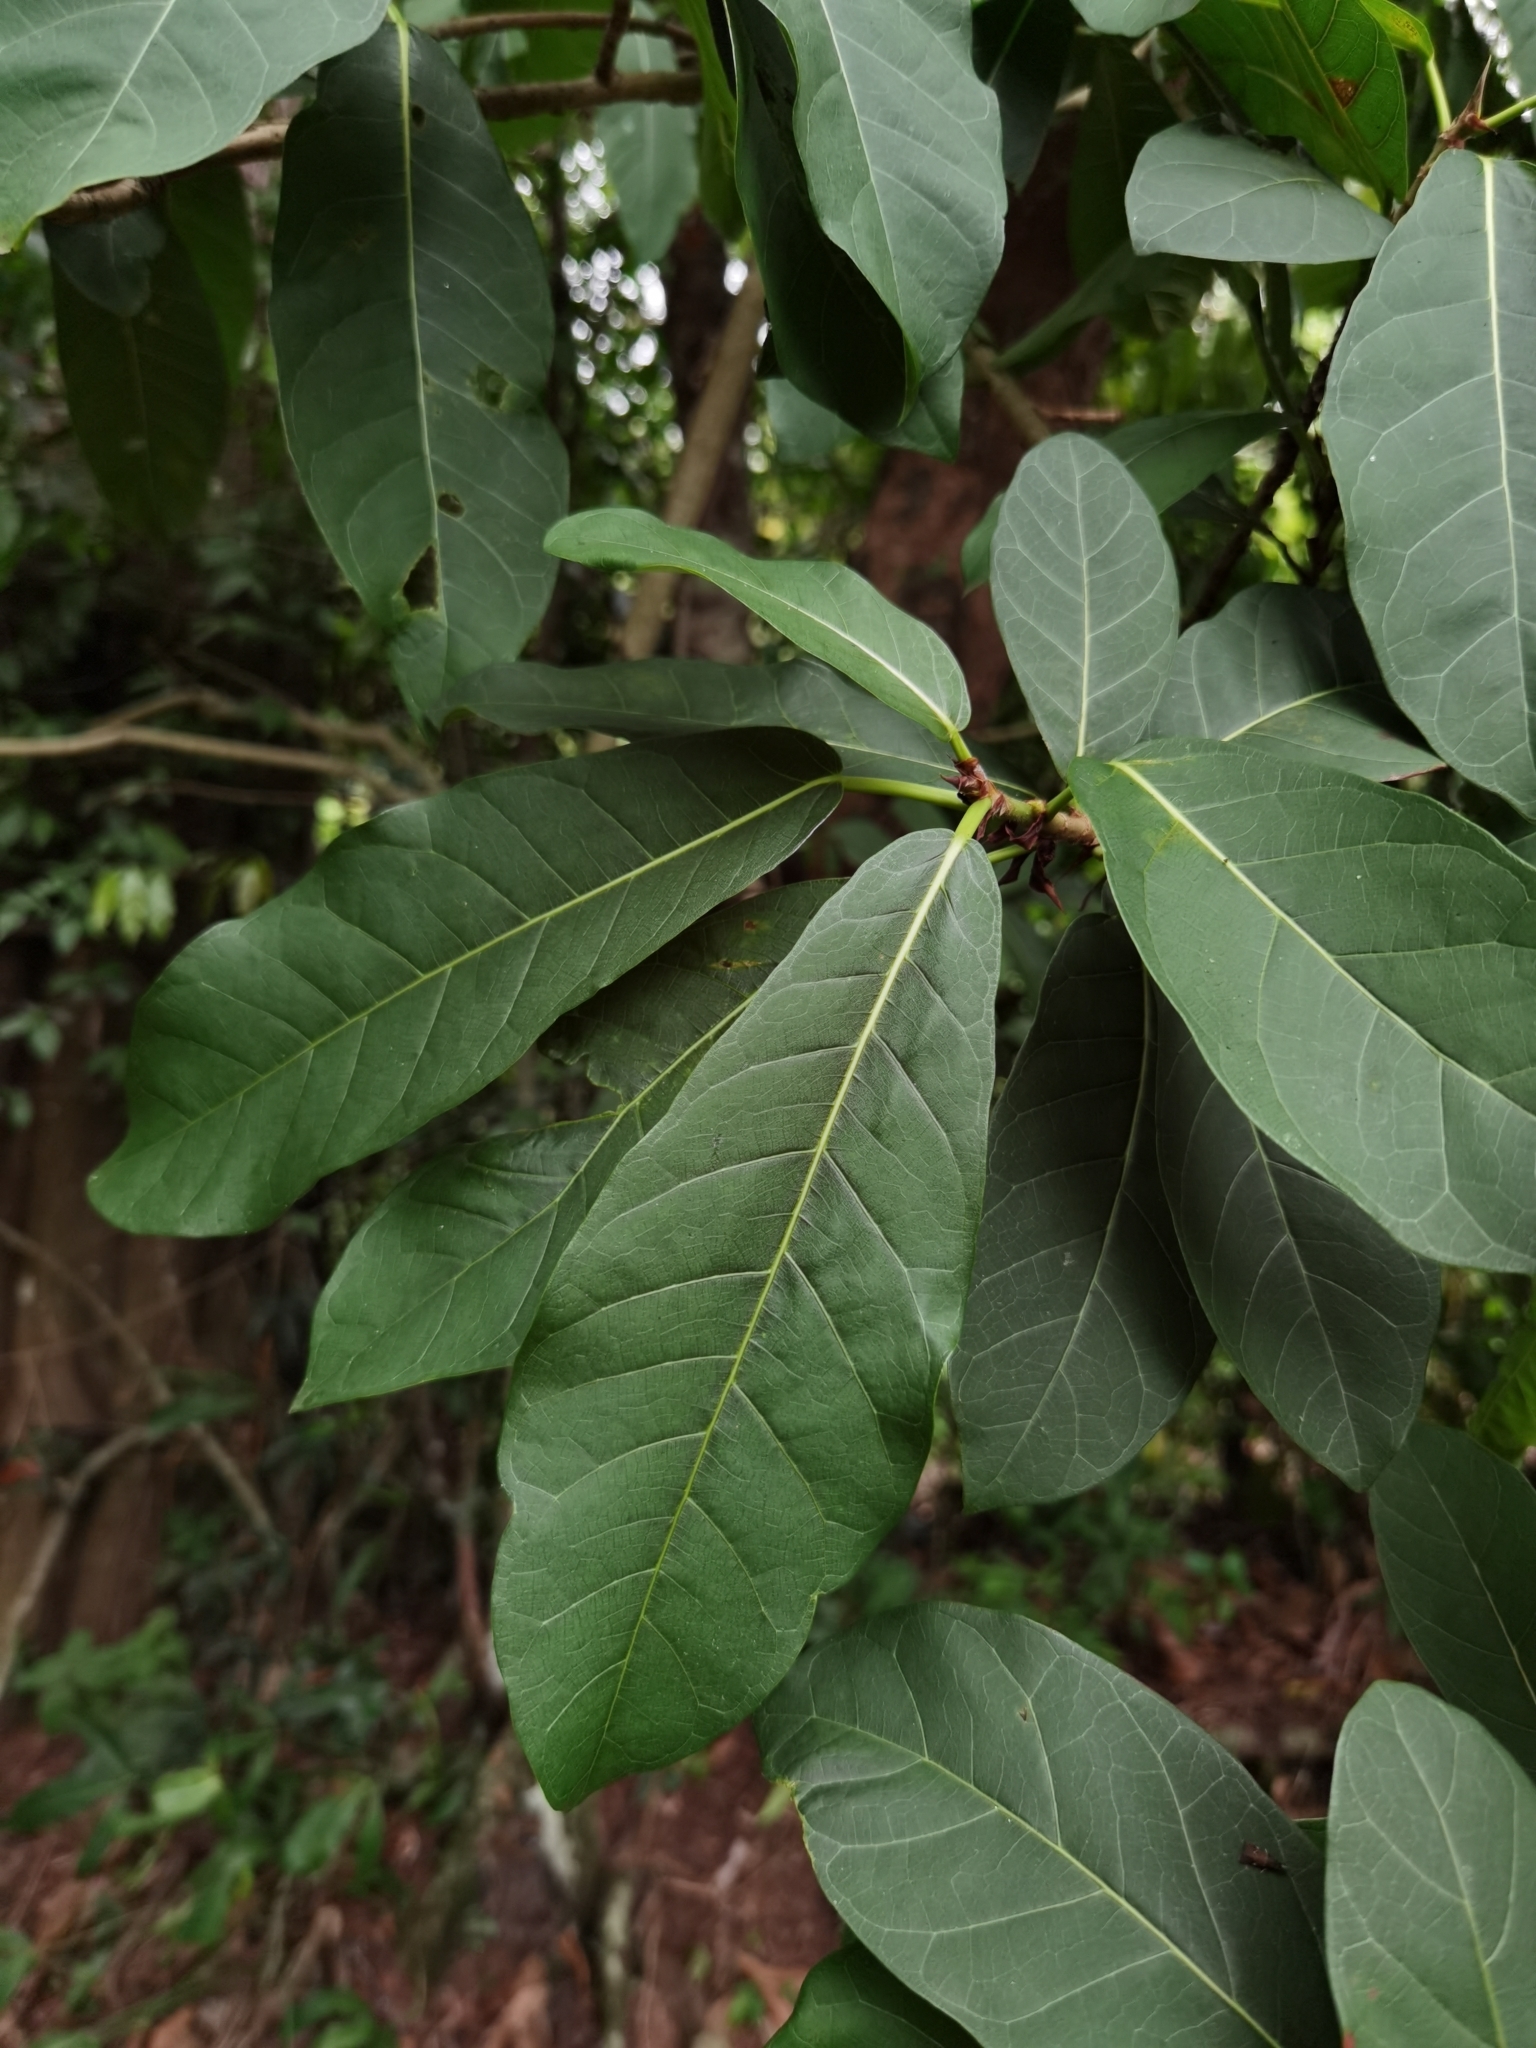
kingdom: Plantae
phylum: Tracheophyta
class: Magnoliopsida
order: Rosales
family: Moraceae
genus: Ficus
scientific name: Ficus costaricana
